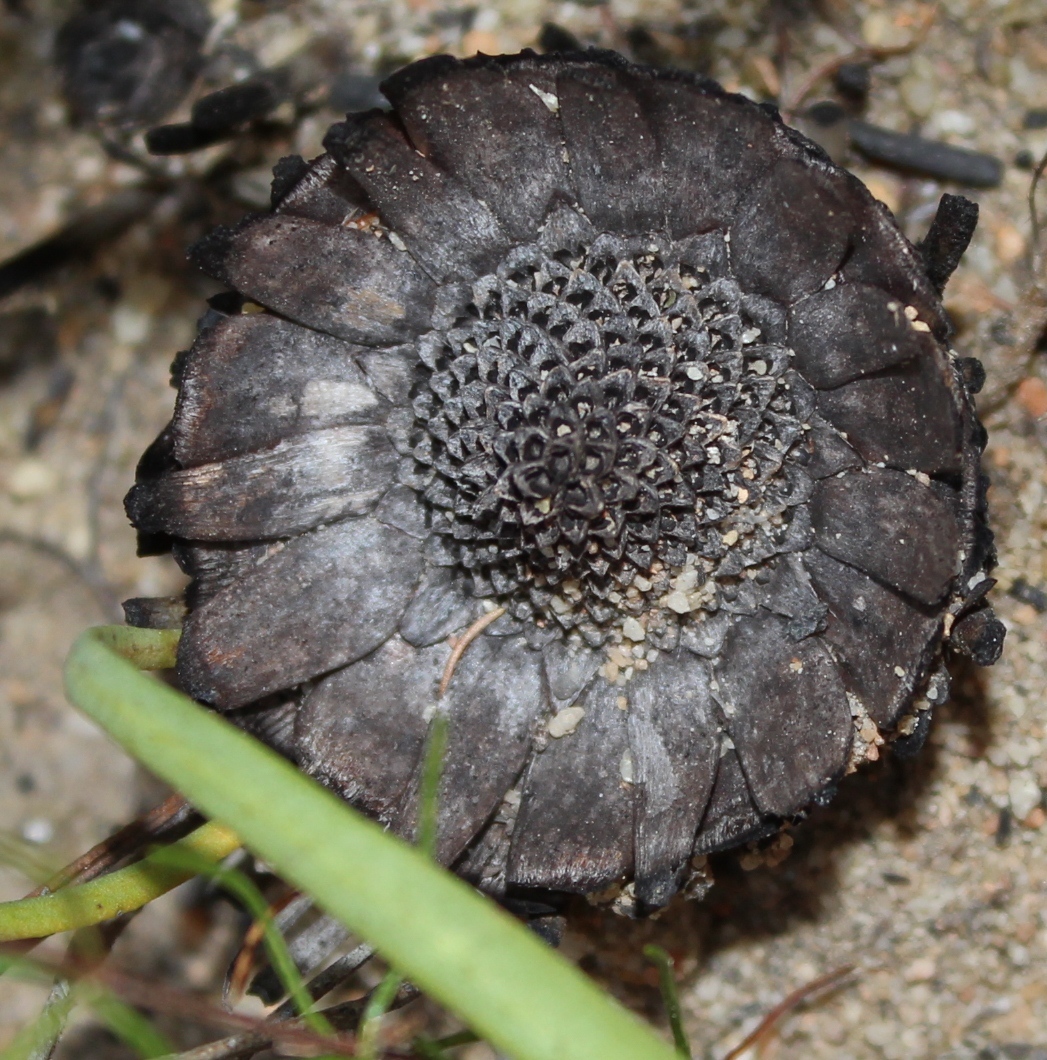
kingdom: Plantae
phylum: Tracheophyta
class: Magnoliopsida
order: Proteales
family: Proteaceae
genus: Protea
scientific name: Protea scabra
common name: Sandpaper-leaf sugarbush
